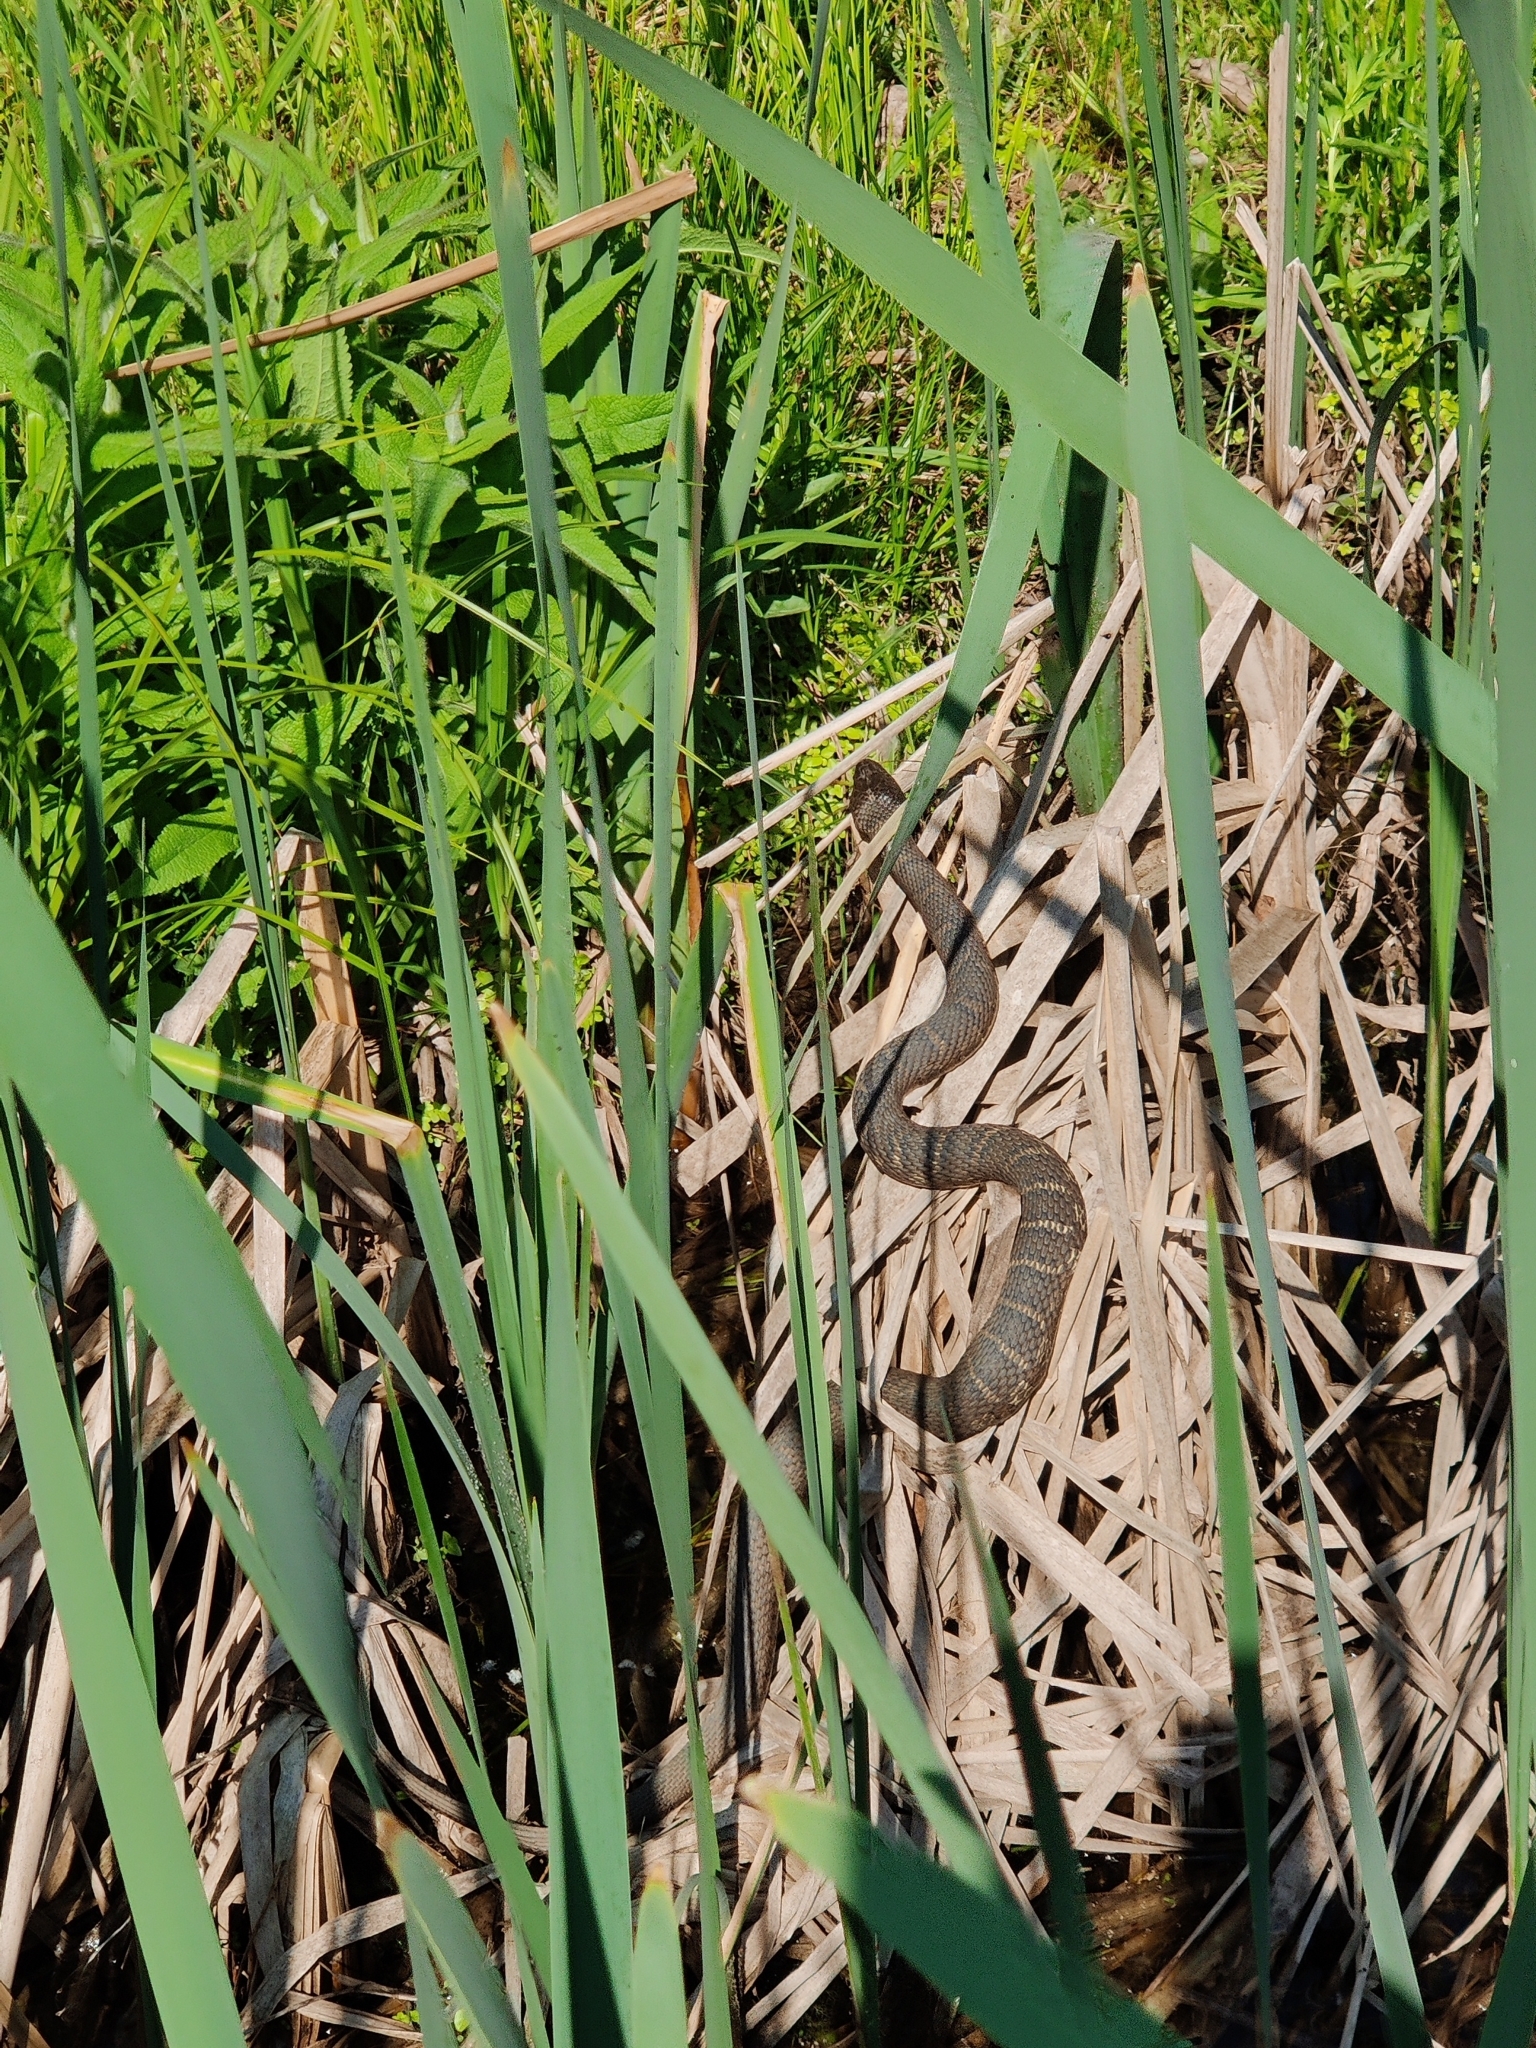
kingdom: Animalia
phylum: Chordata
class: Squamata
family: Colubridae
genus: Nerodia
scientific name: Nerodia sipedon
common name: Northern water snake
